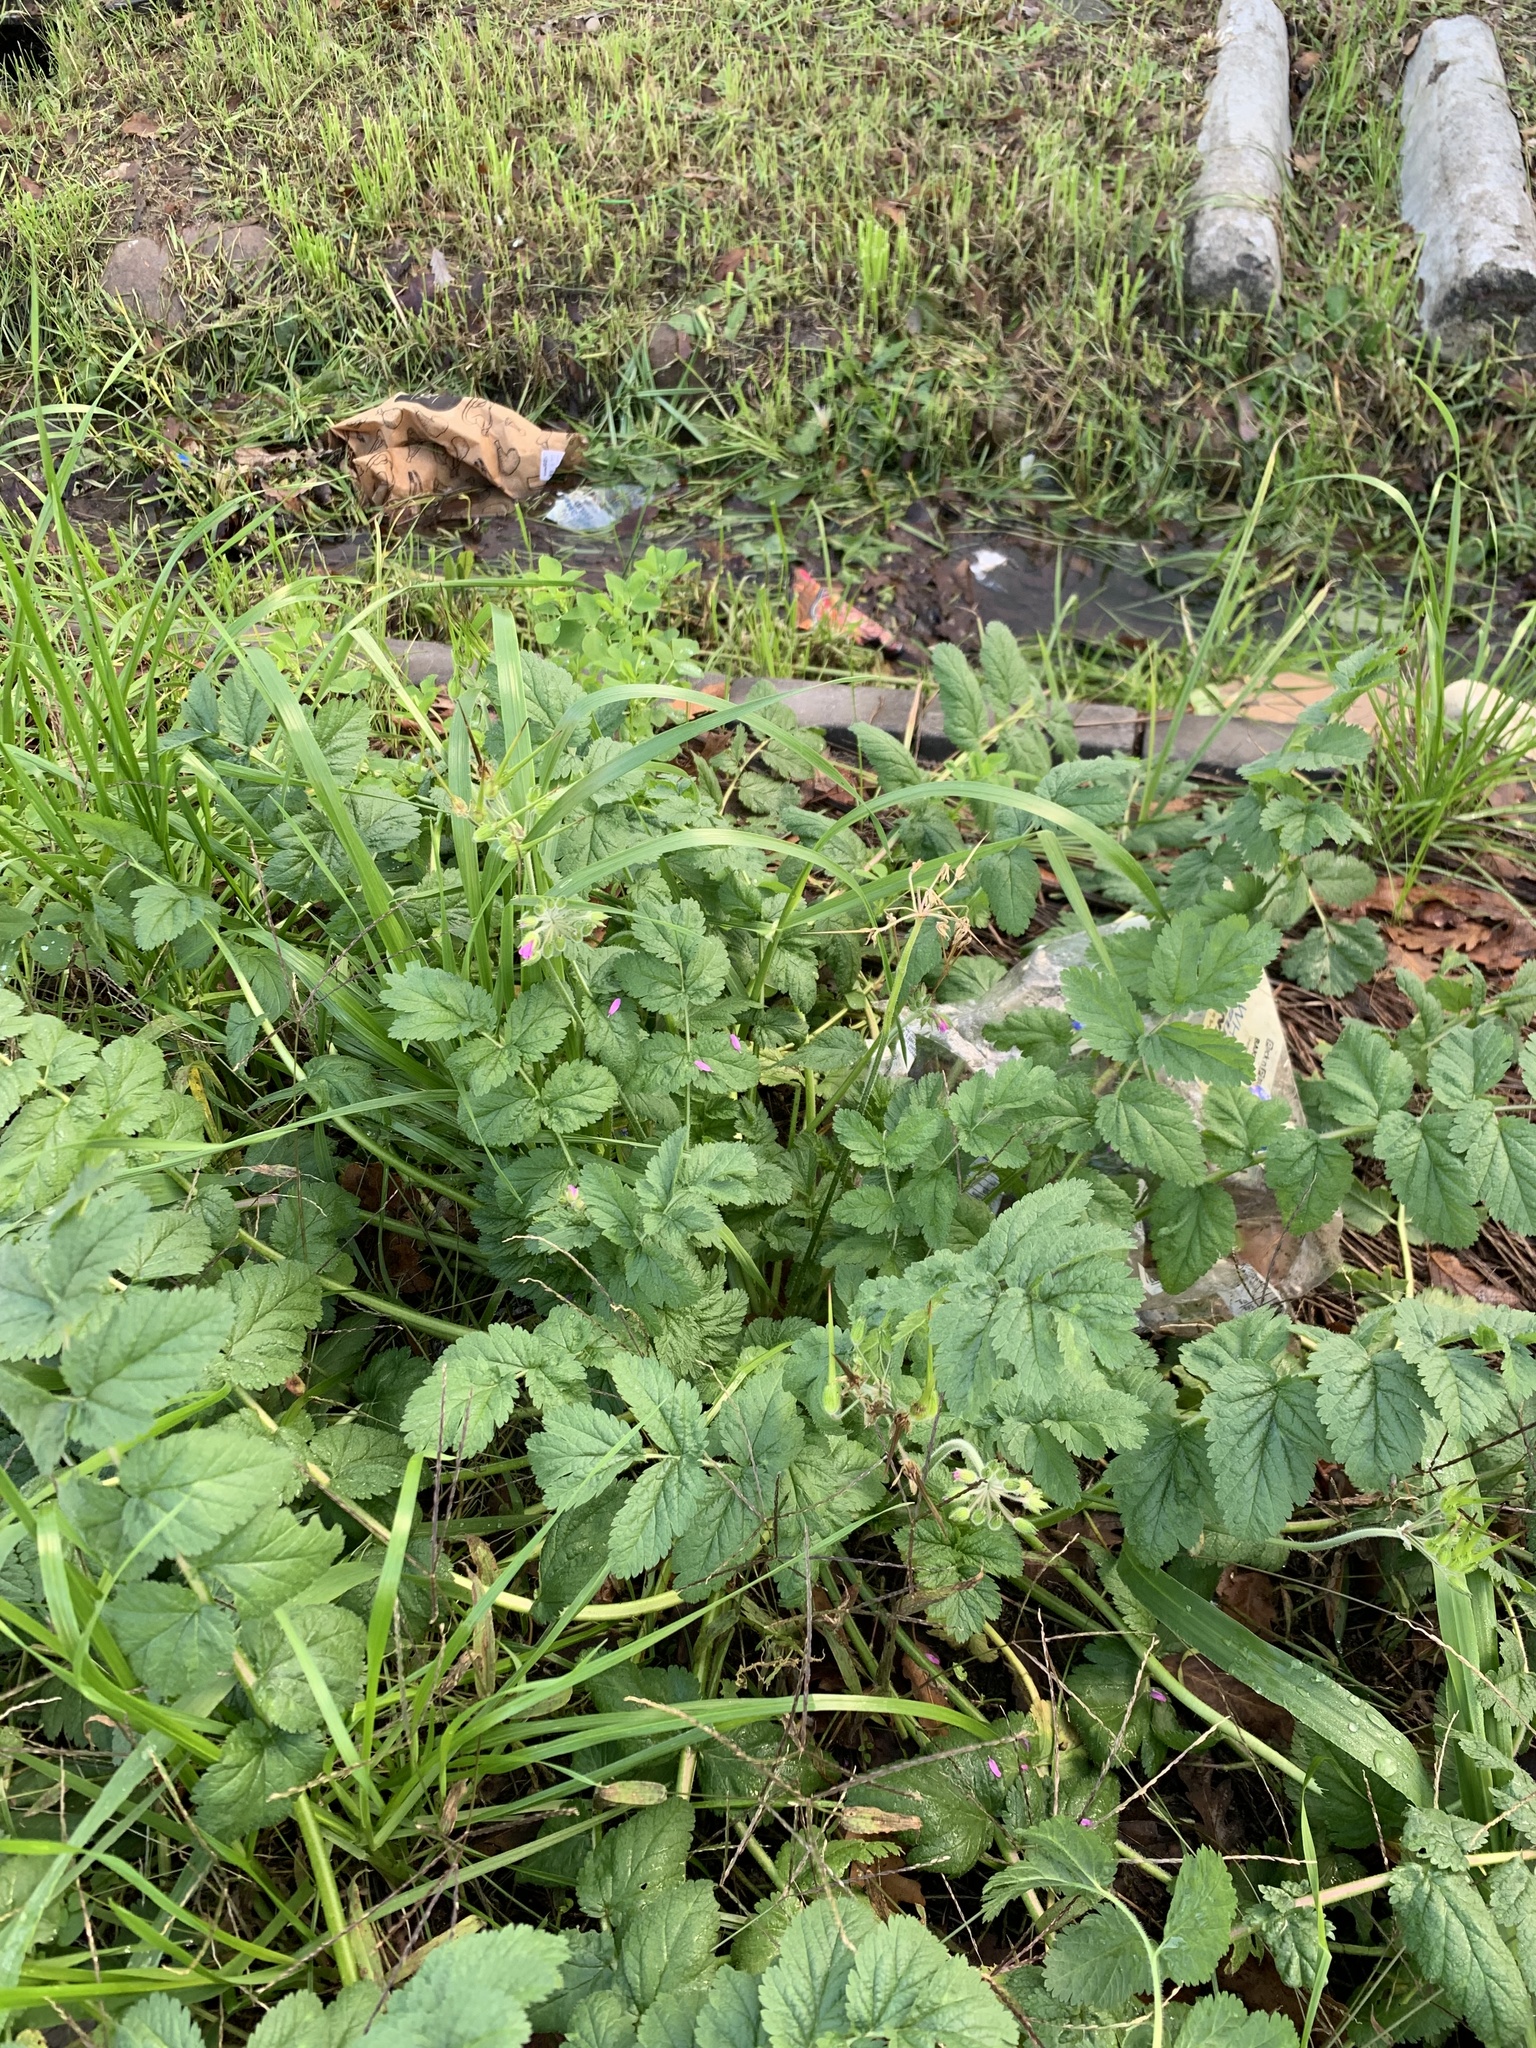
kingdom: Plantae
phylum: Tracheophyta
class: Magnoliopsida
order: Geraniales
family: Geraniaceae
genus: Erodium
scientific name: Erodium moschatum
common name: Musk stork's-bill
